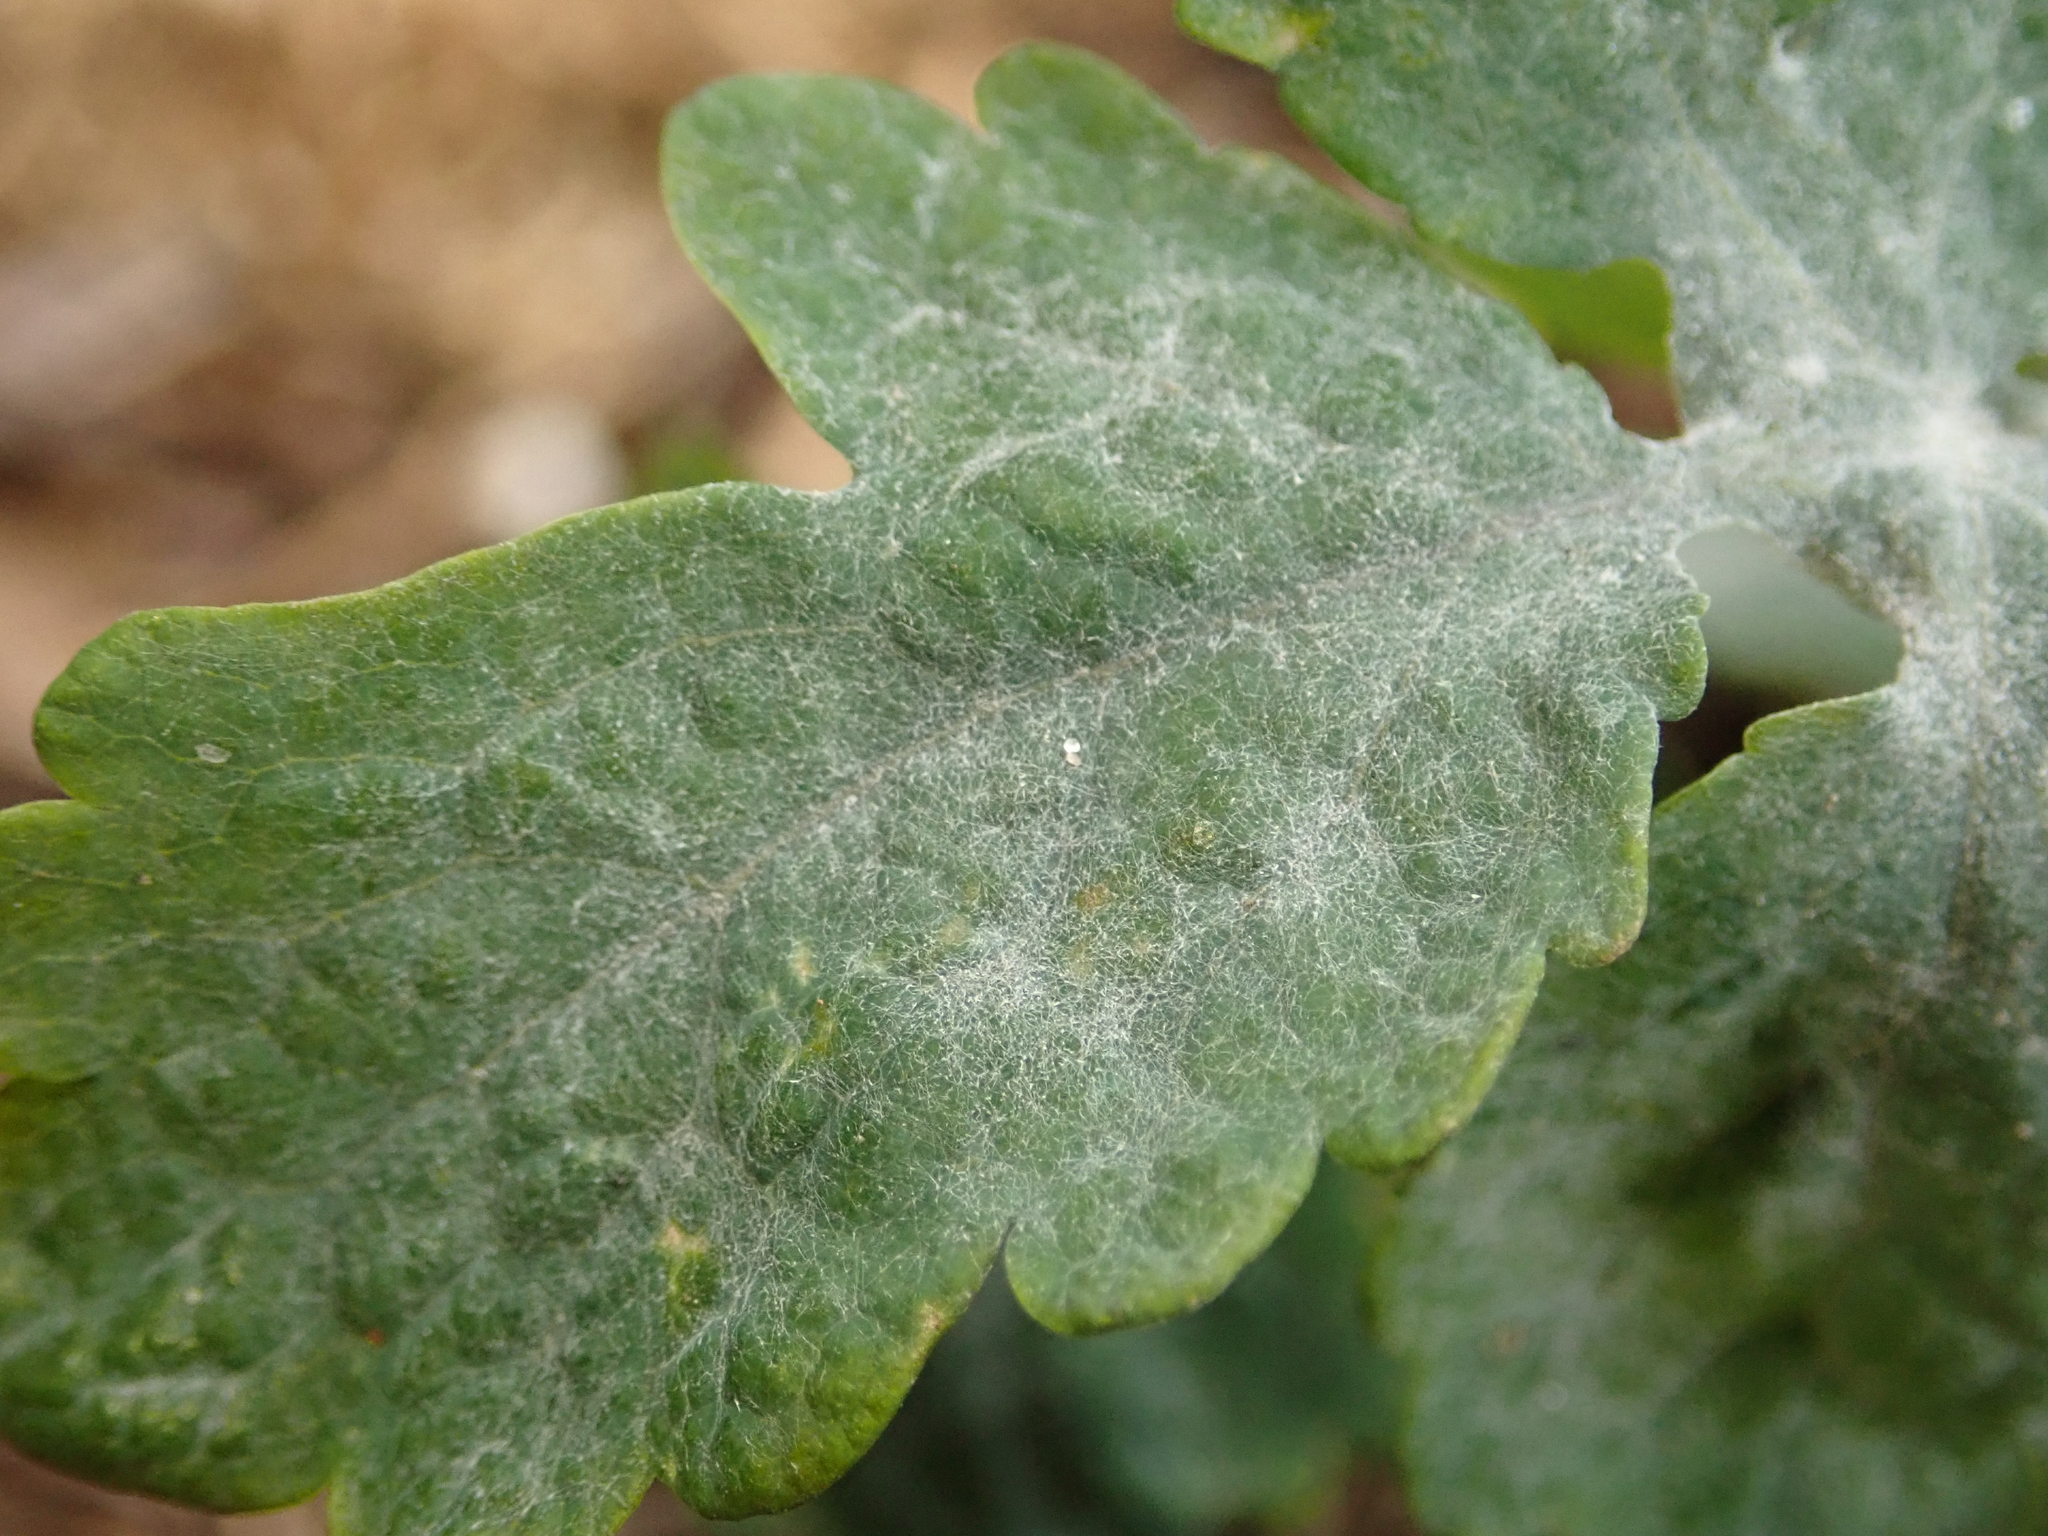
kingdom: Fungi
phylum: Ascomycota
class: Leotiomycetes
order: Helotiales
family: Erysiphaceae
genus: Erysiphe
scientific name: Erysiphe macleayae
